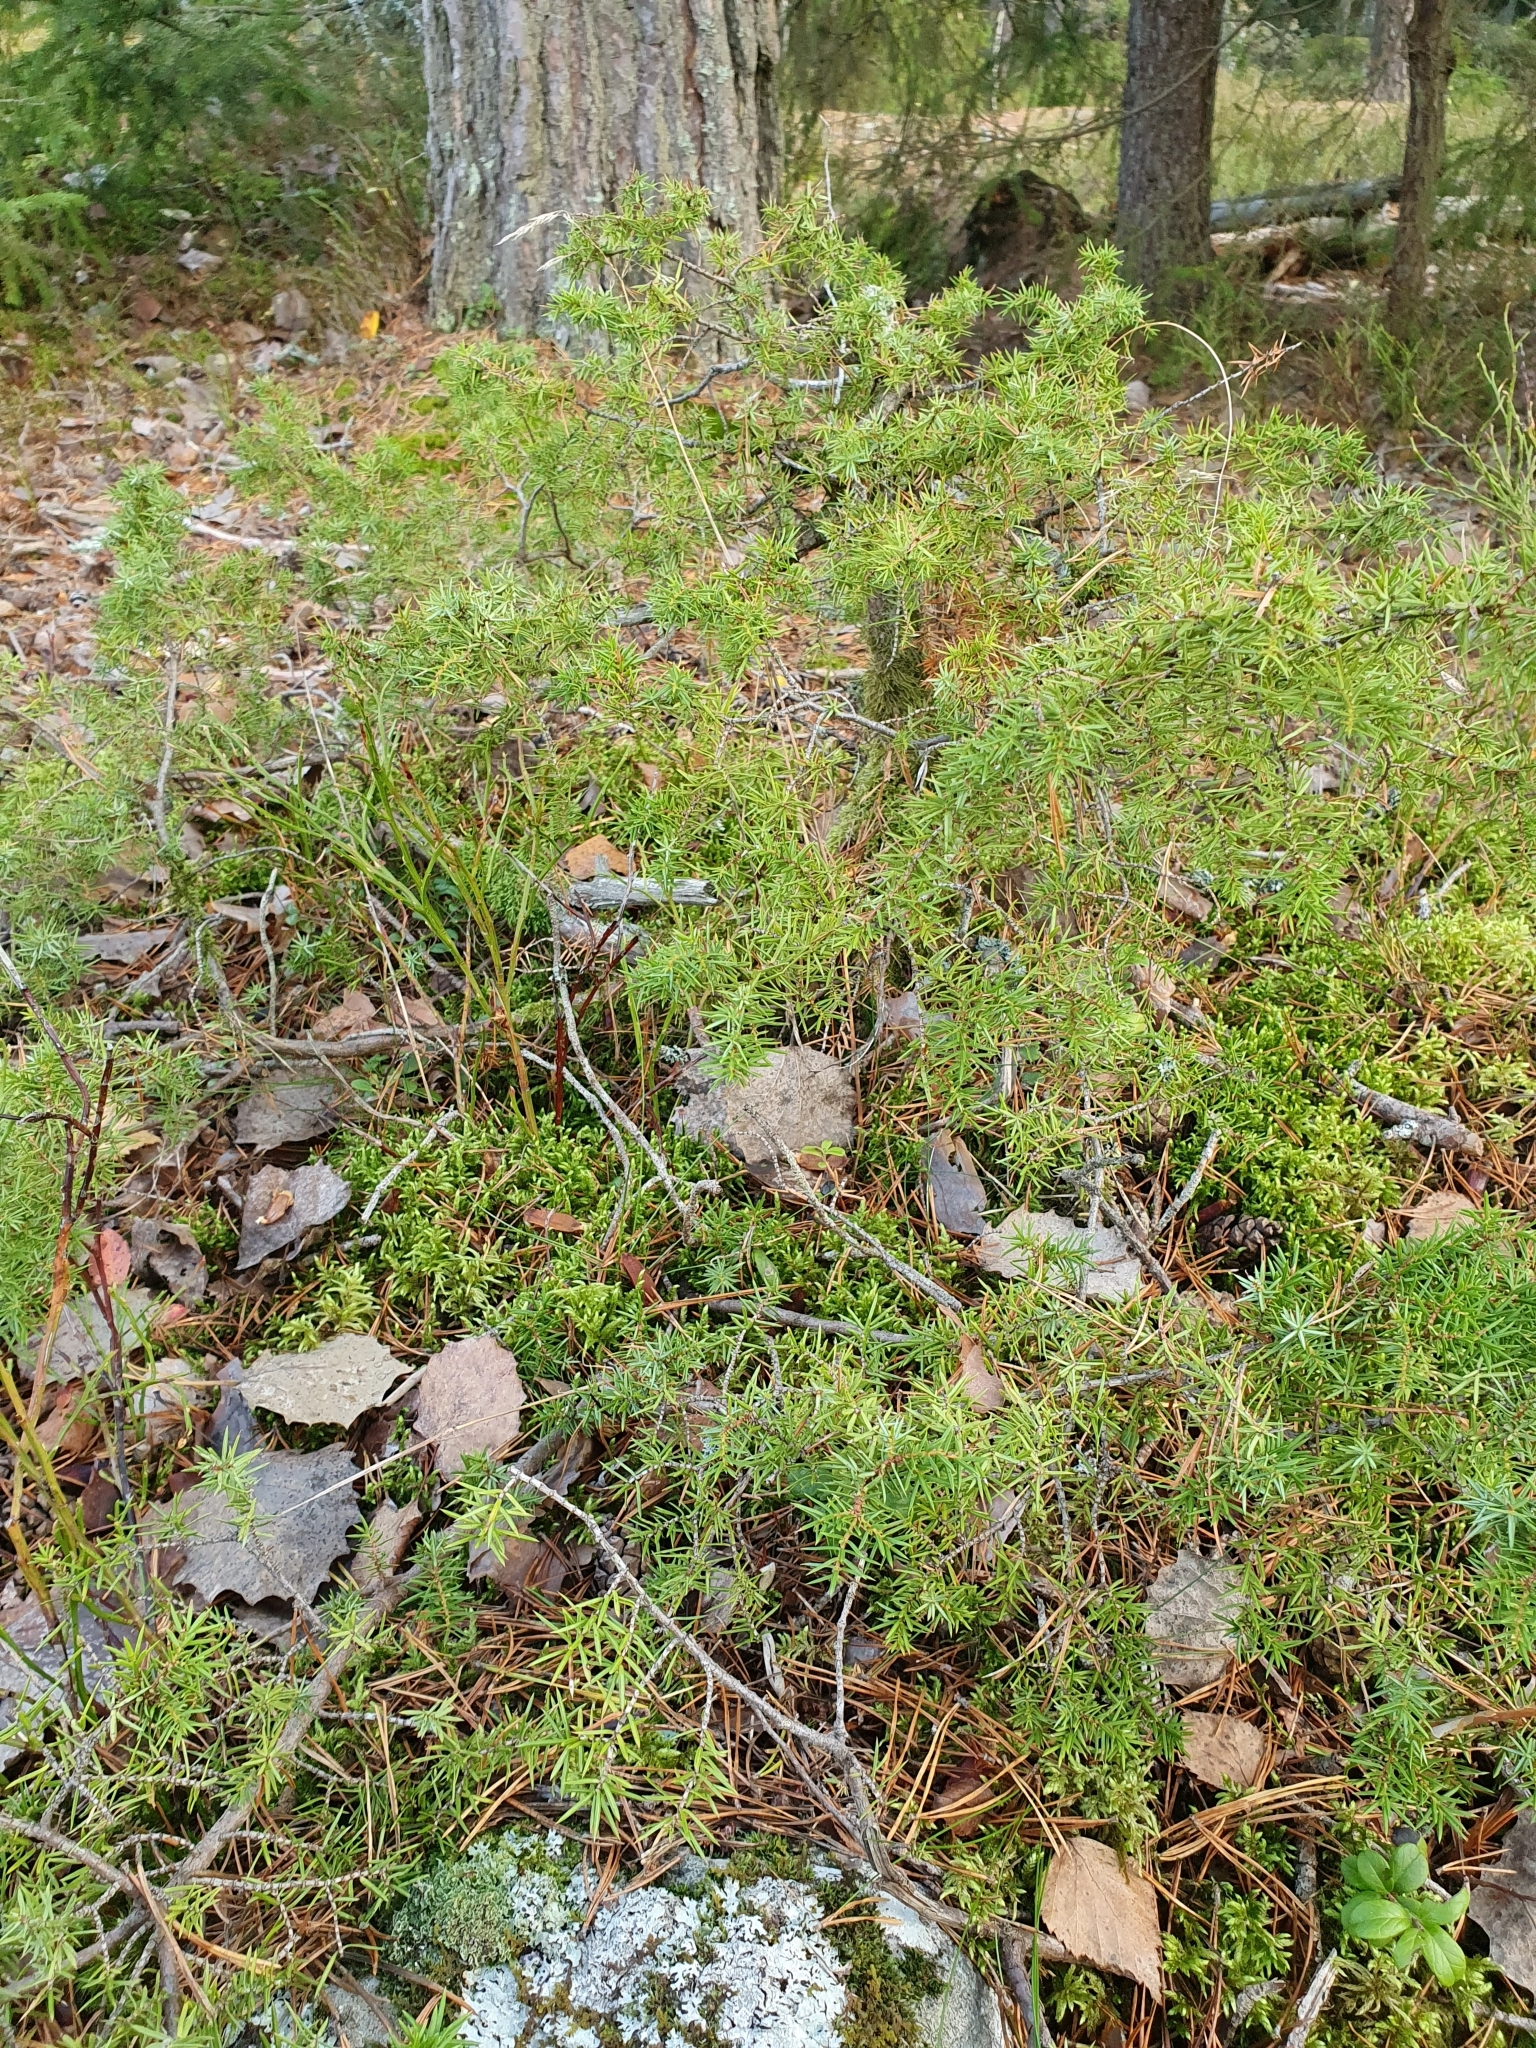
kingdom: Plantae
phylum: Tracheophyta
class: Pinopsida
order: Pinales
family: Cupressaceae
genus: Juniperus
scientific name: Juniperus communis
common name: Common juniper
